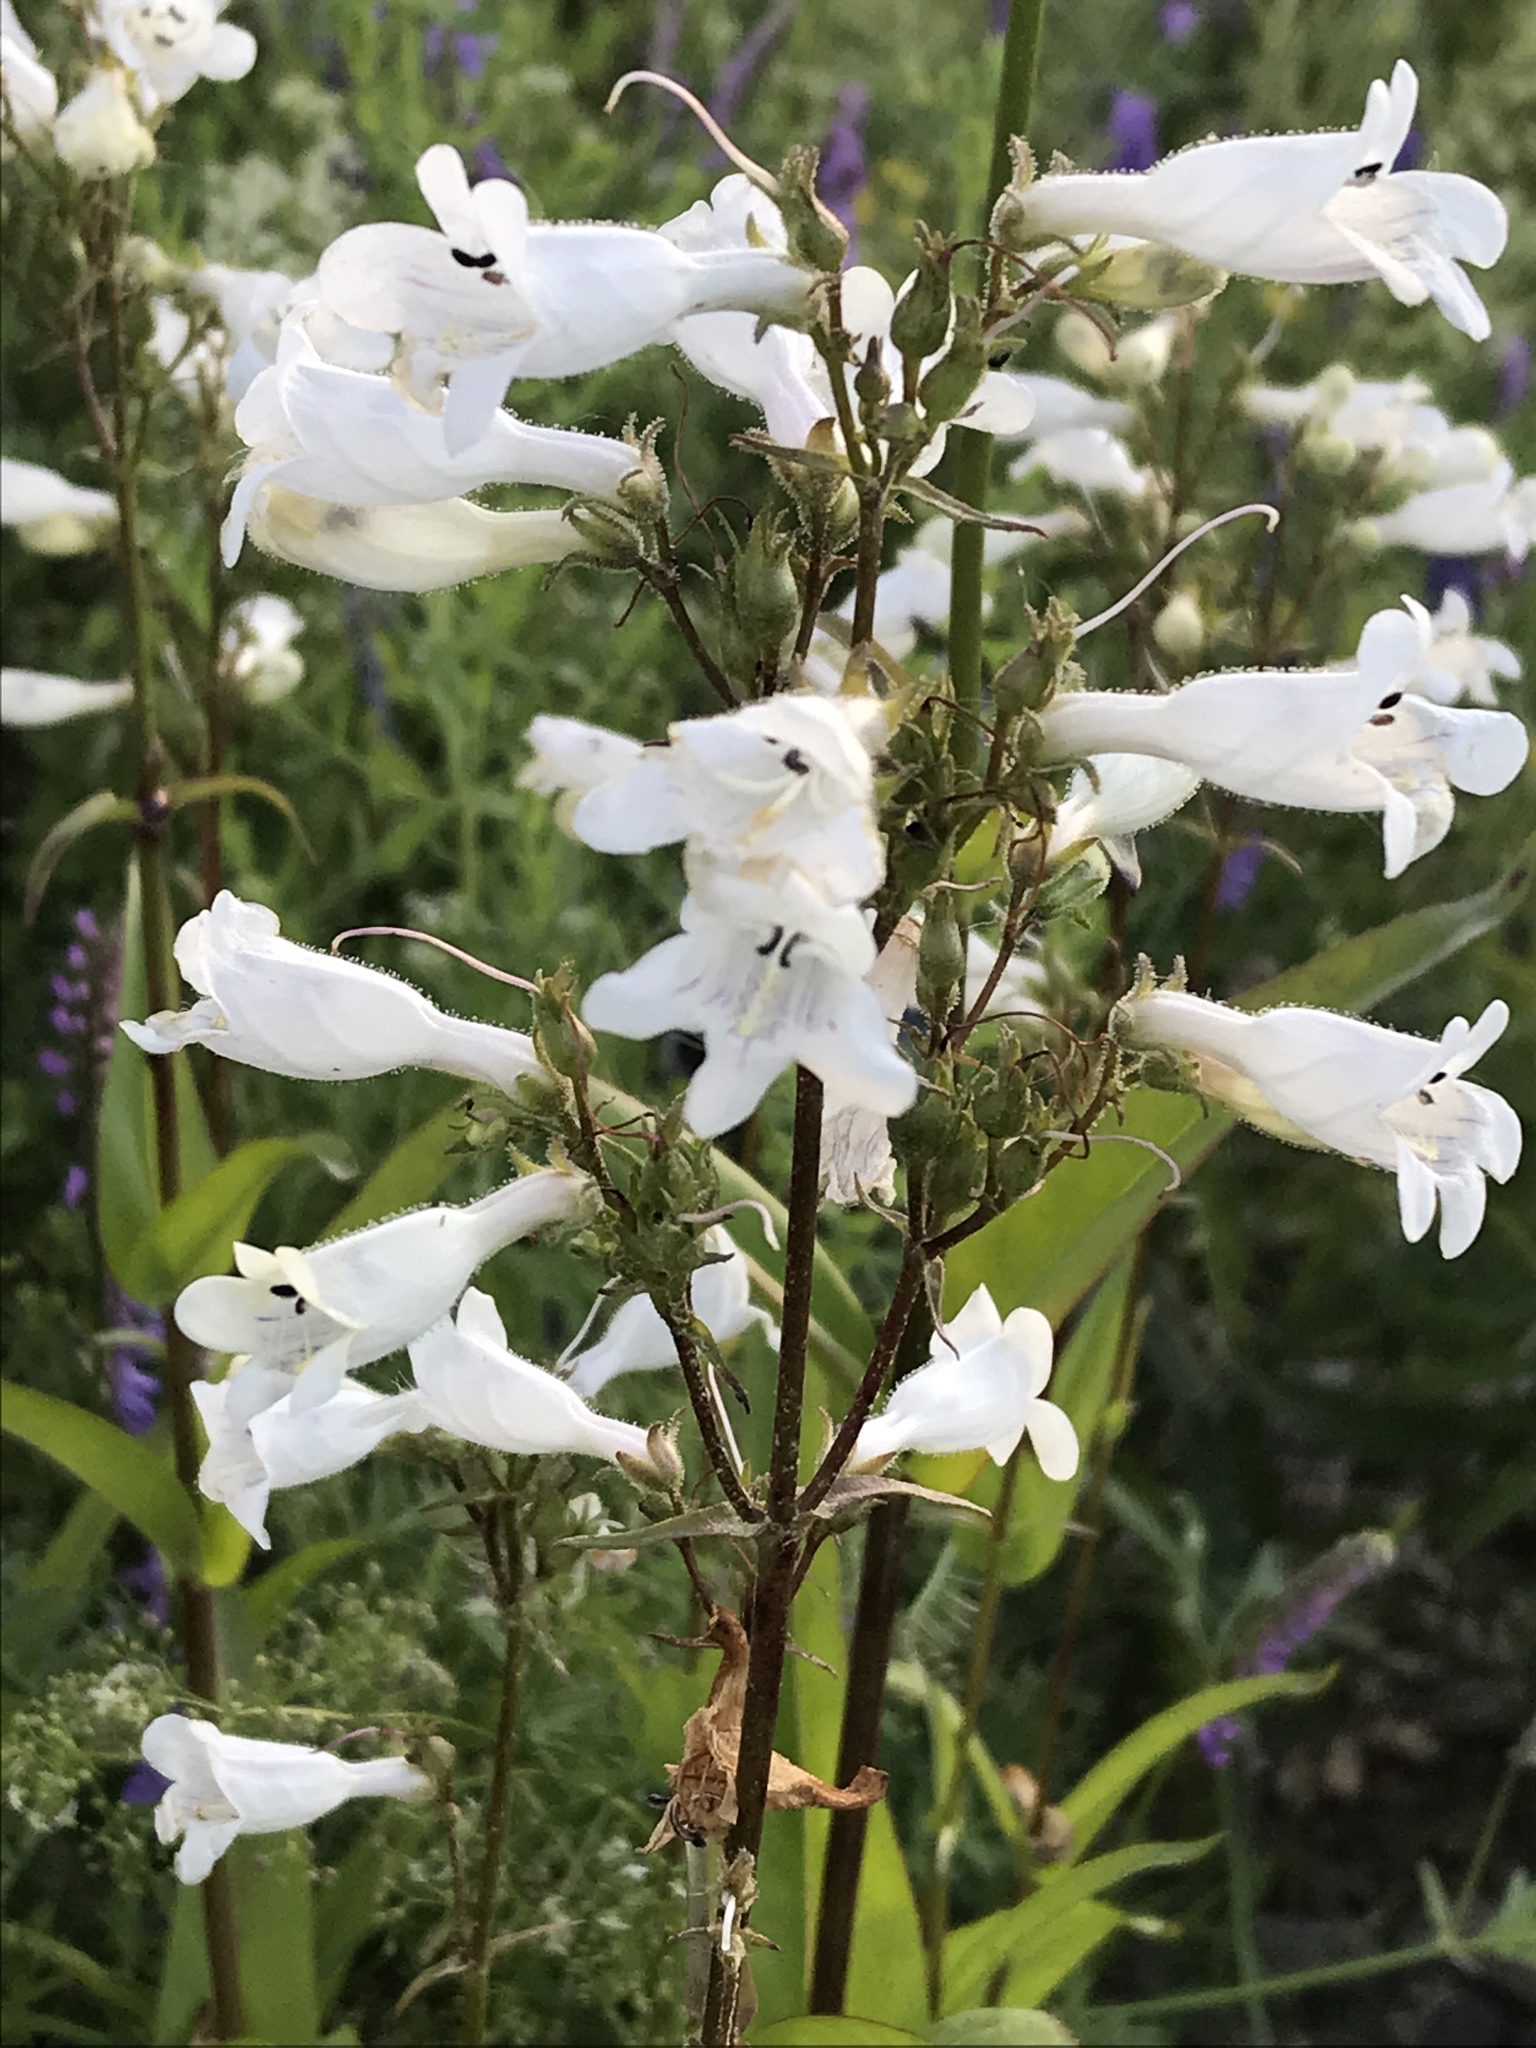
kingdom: Plantae
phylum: Tracheophyta
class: Magnoliopsida
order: Lamiales
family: Plantaginaceae
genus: Penstemon
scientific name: Penstemon digitalis
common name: Foxglove beardtongue
